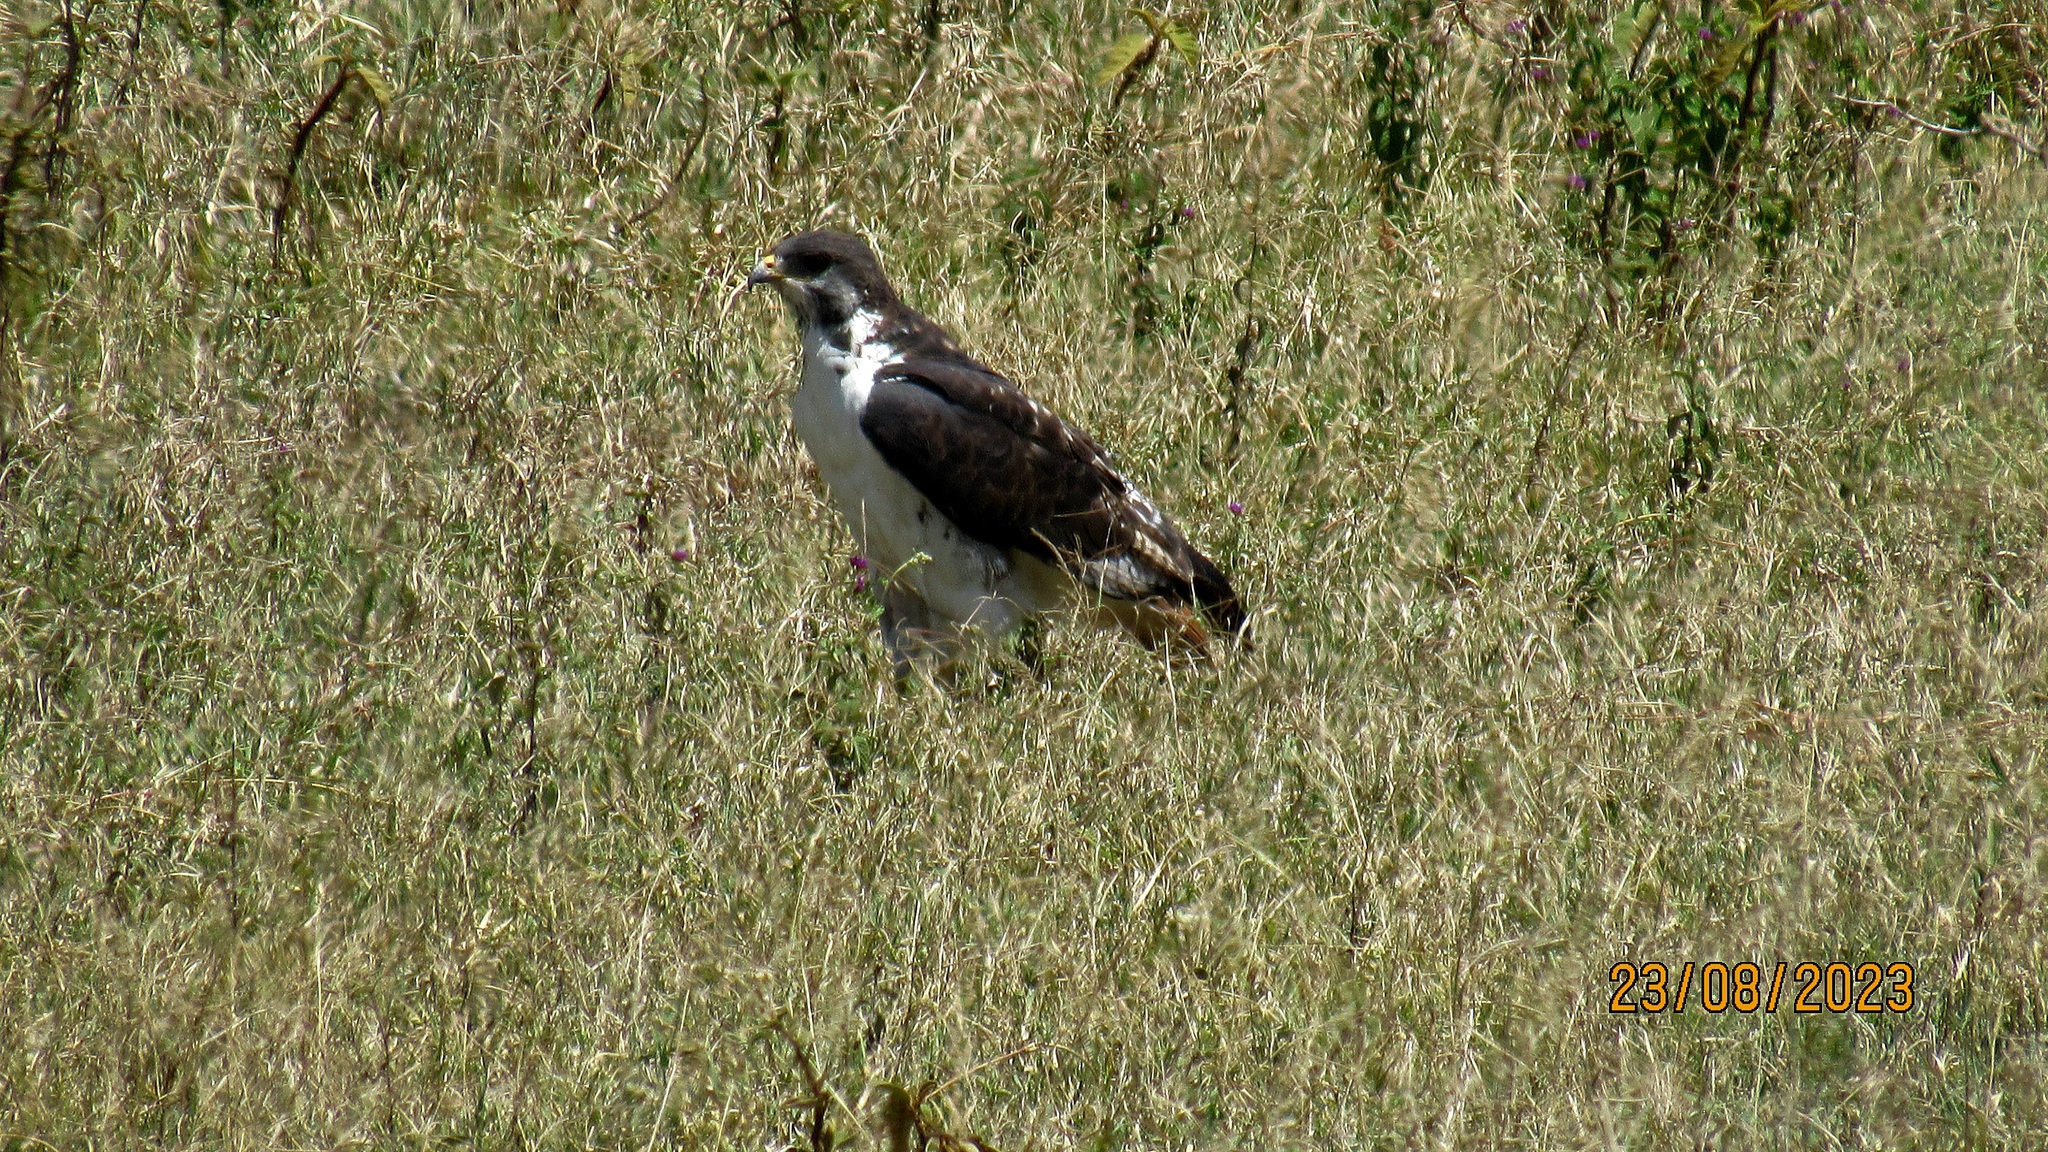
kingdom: Animalia
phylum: Chordata
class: Aves
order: Accipitriformes
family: Accipitridae
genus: Buteo
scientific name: Buteo augur
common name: Augur buzzard
